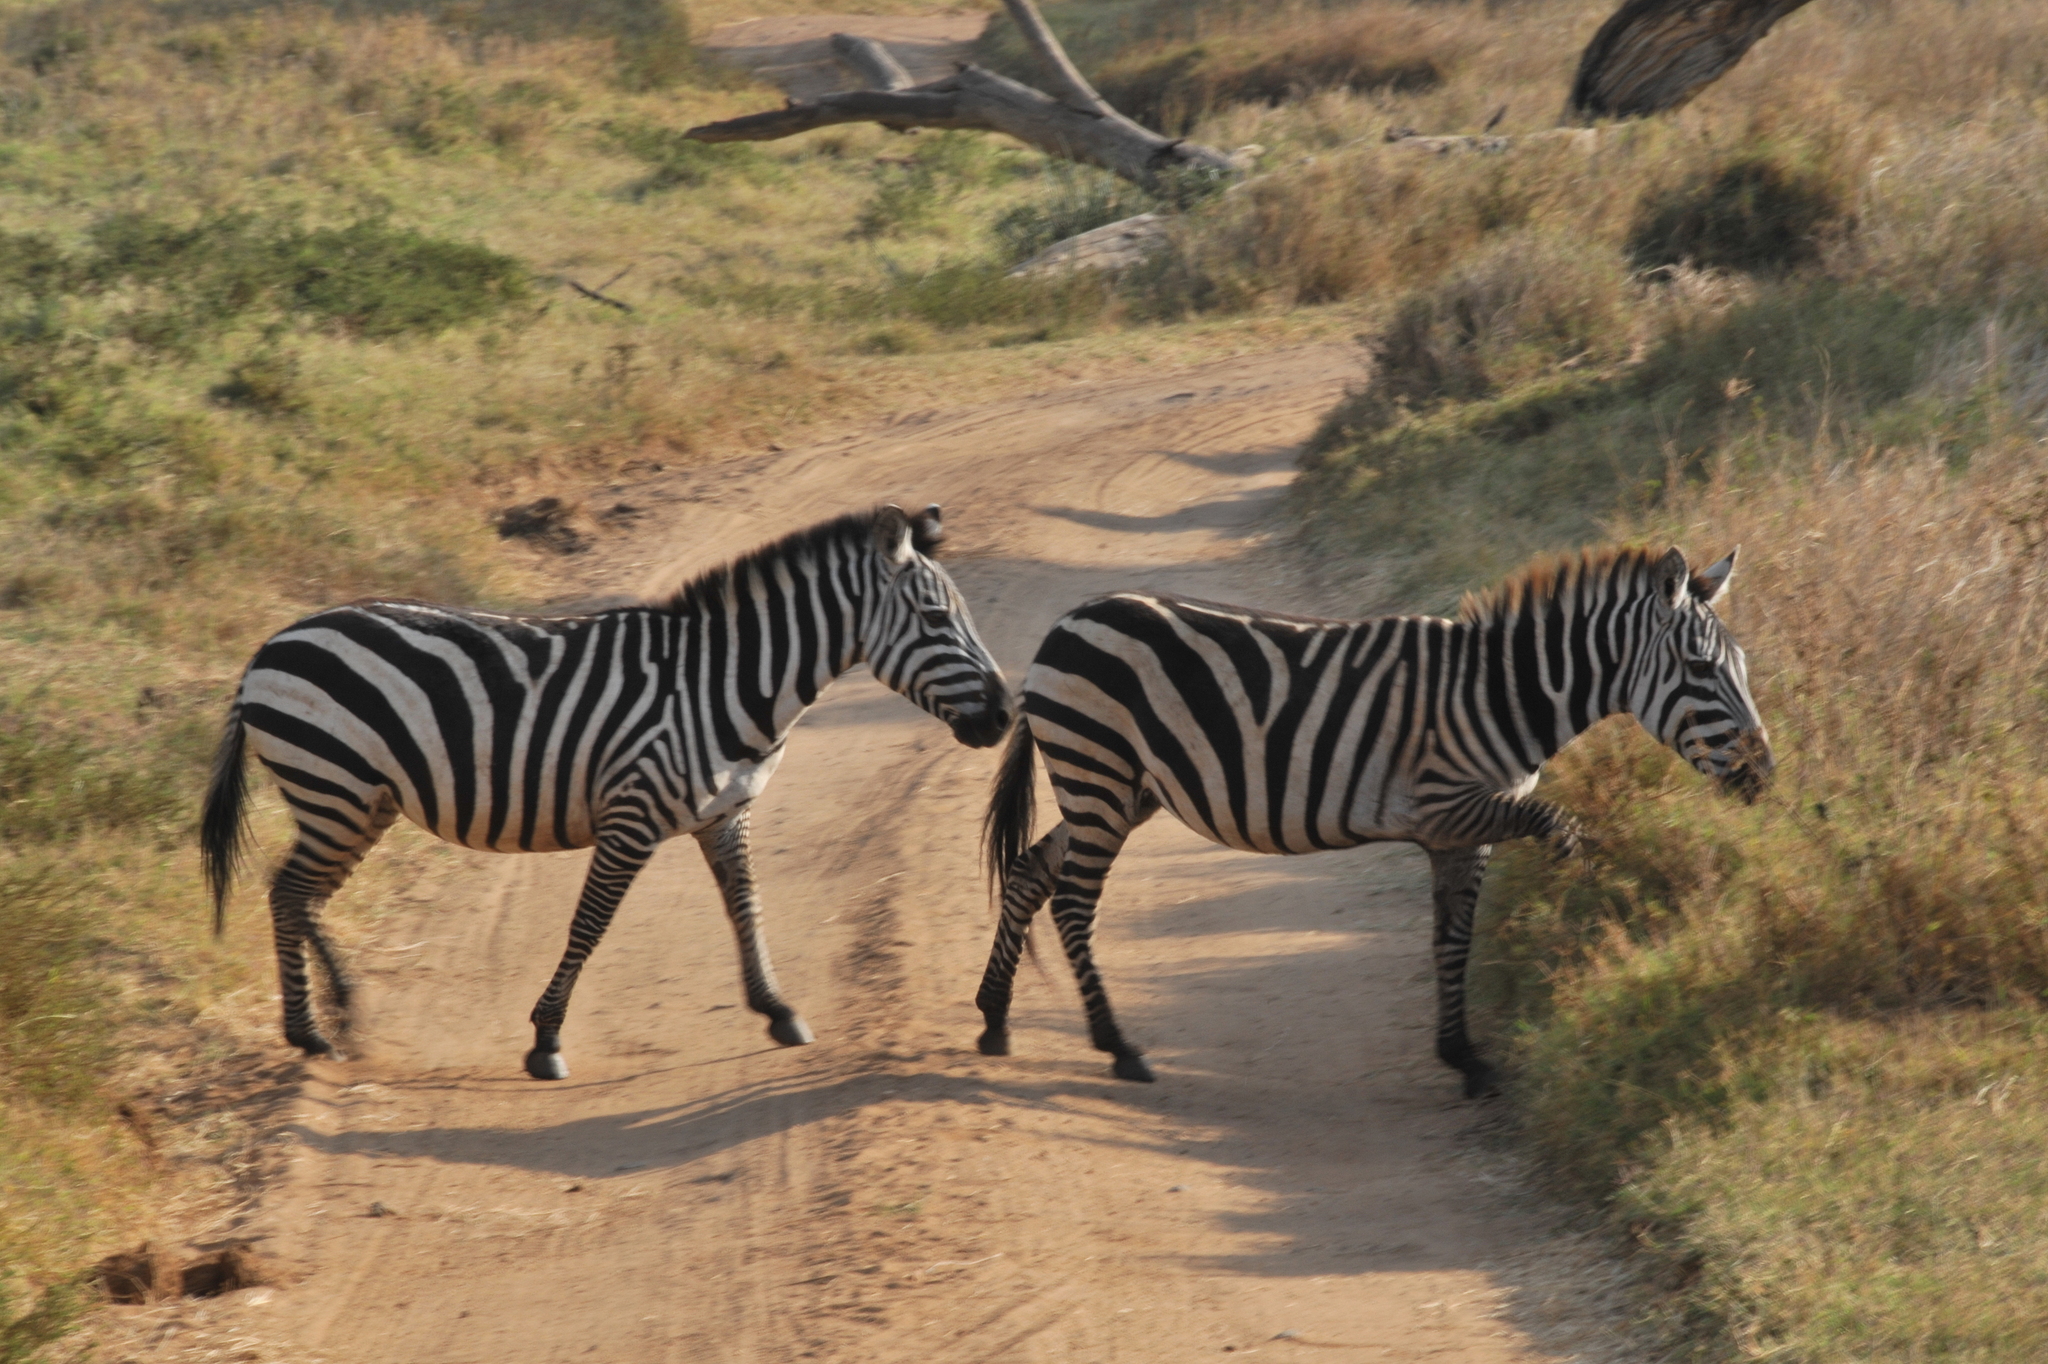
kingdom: Animalia
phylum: Chordata
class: Mammalia
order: Perissodactyla
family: Equidae
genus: Equus
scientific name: Equus quagga
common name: Plains zebra
